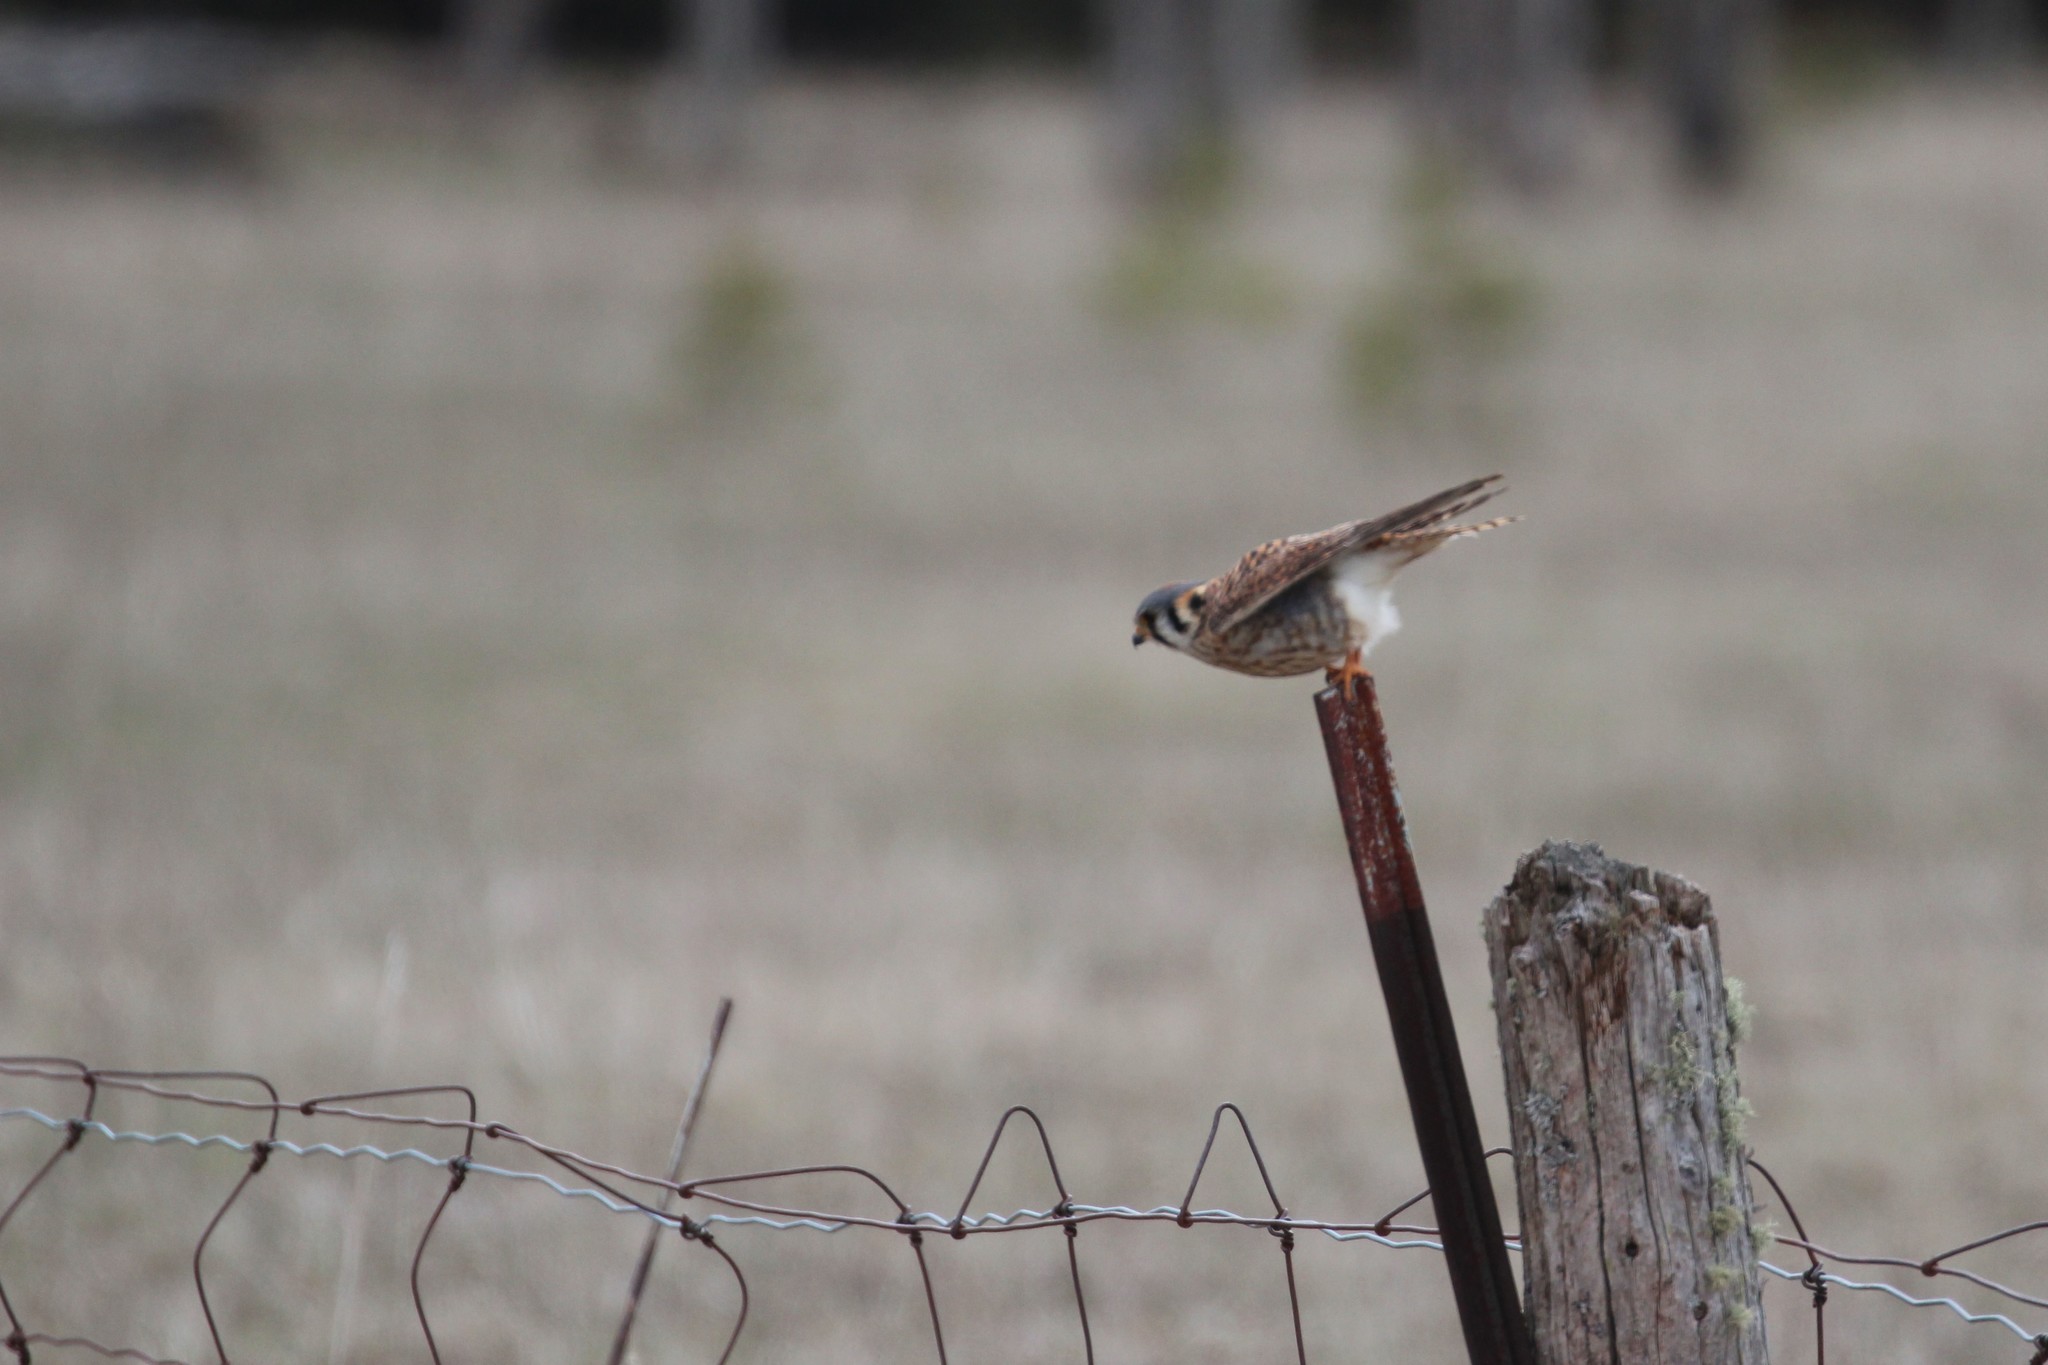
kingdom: Animalia
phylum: Chordata
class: Aves
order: Falconiformes
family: Falconidae
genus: Falco
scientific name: Falco sparverius
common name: American kestrel
